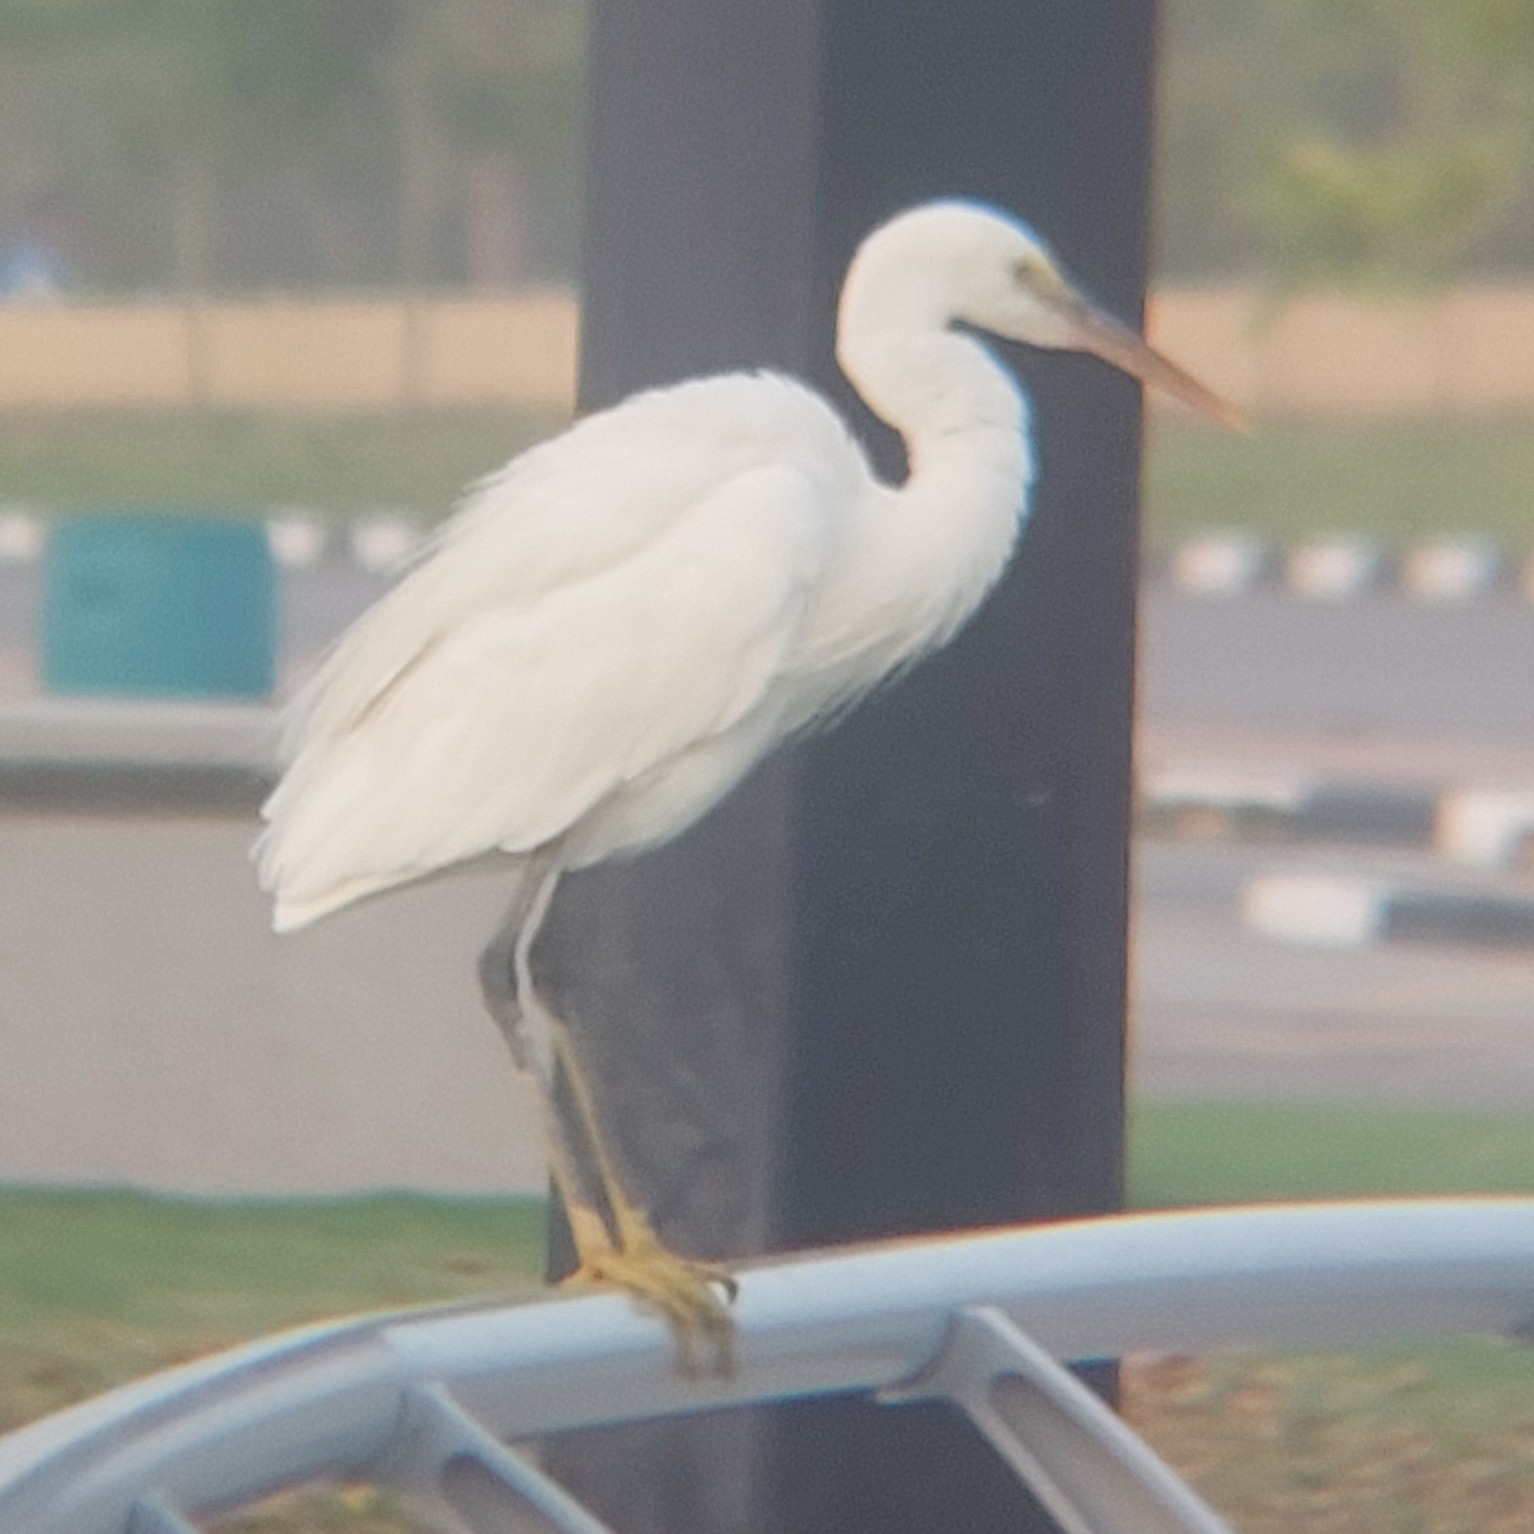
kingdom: Animalia
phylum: Chordata
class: Aves
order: Pelecaniformes
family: Ardeidae
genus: Egretta
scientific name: Egretta gularis
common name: Western reef-heron
